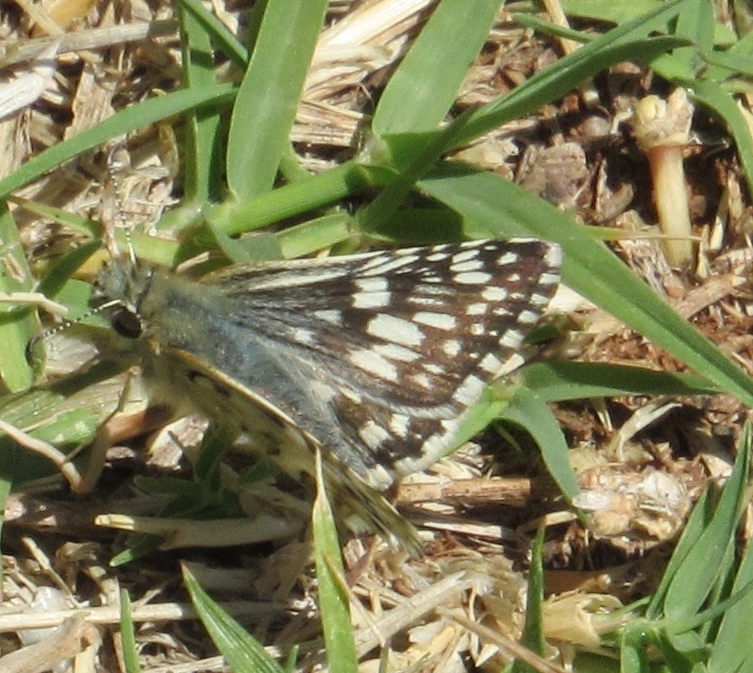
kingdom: Animalia
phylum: Arthropoda
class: Insecta
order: Lepidoptera
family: Hesperiidae
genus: Burnsius
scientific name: Burnsius communis
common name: Common checkered-skipper
